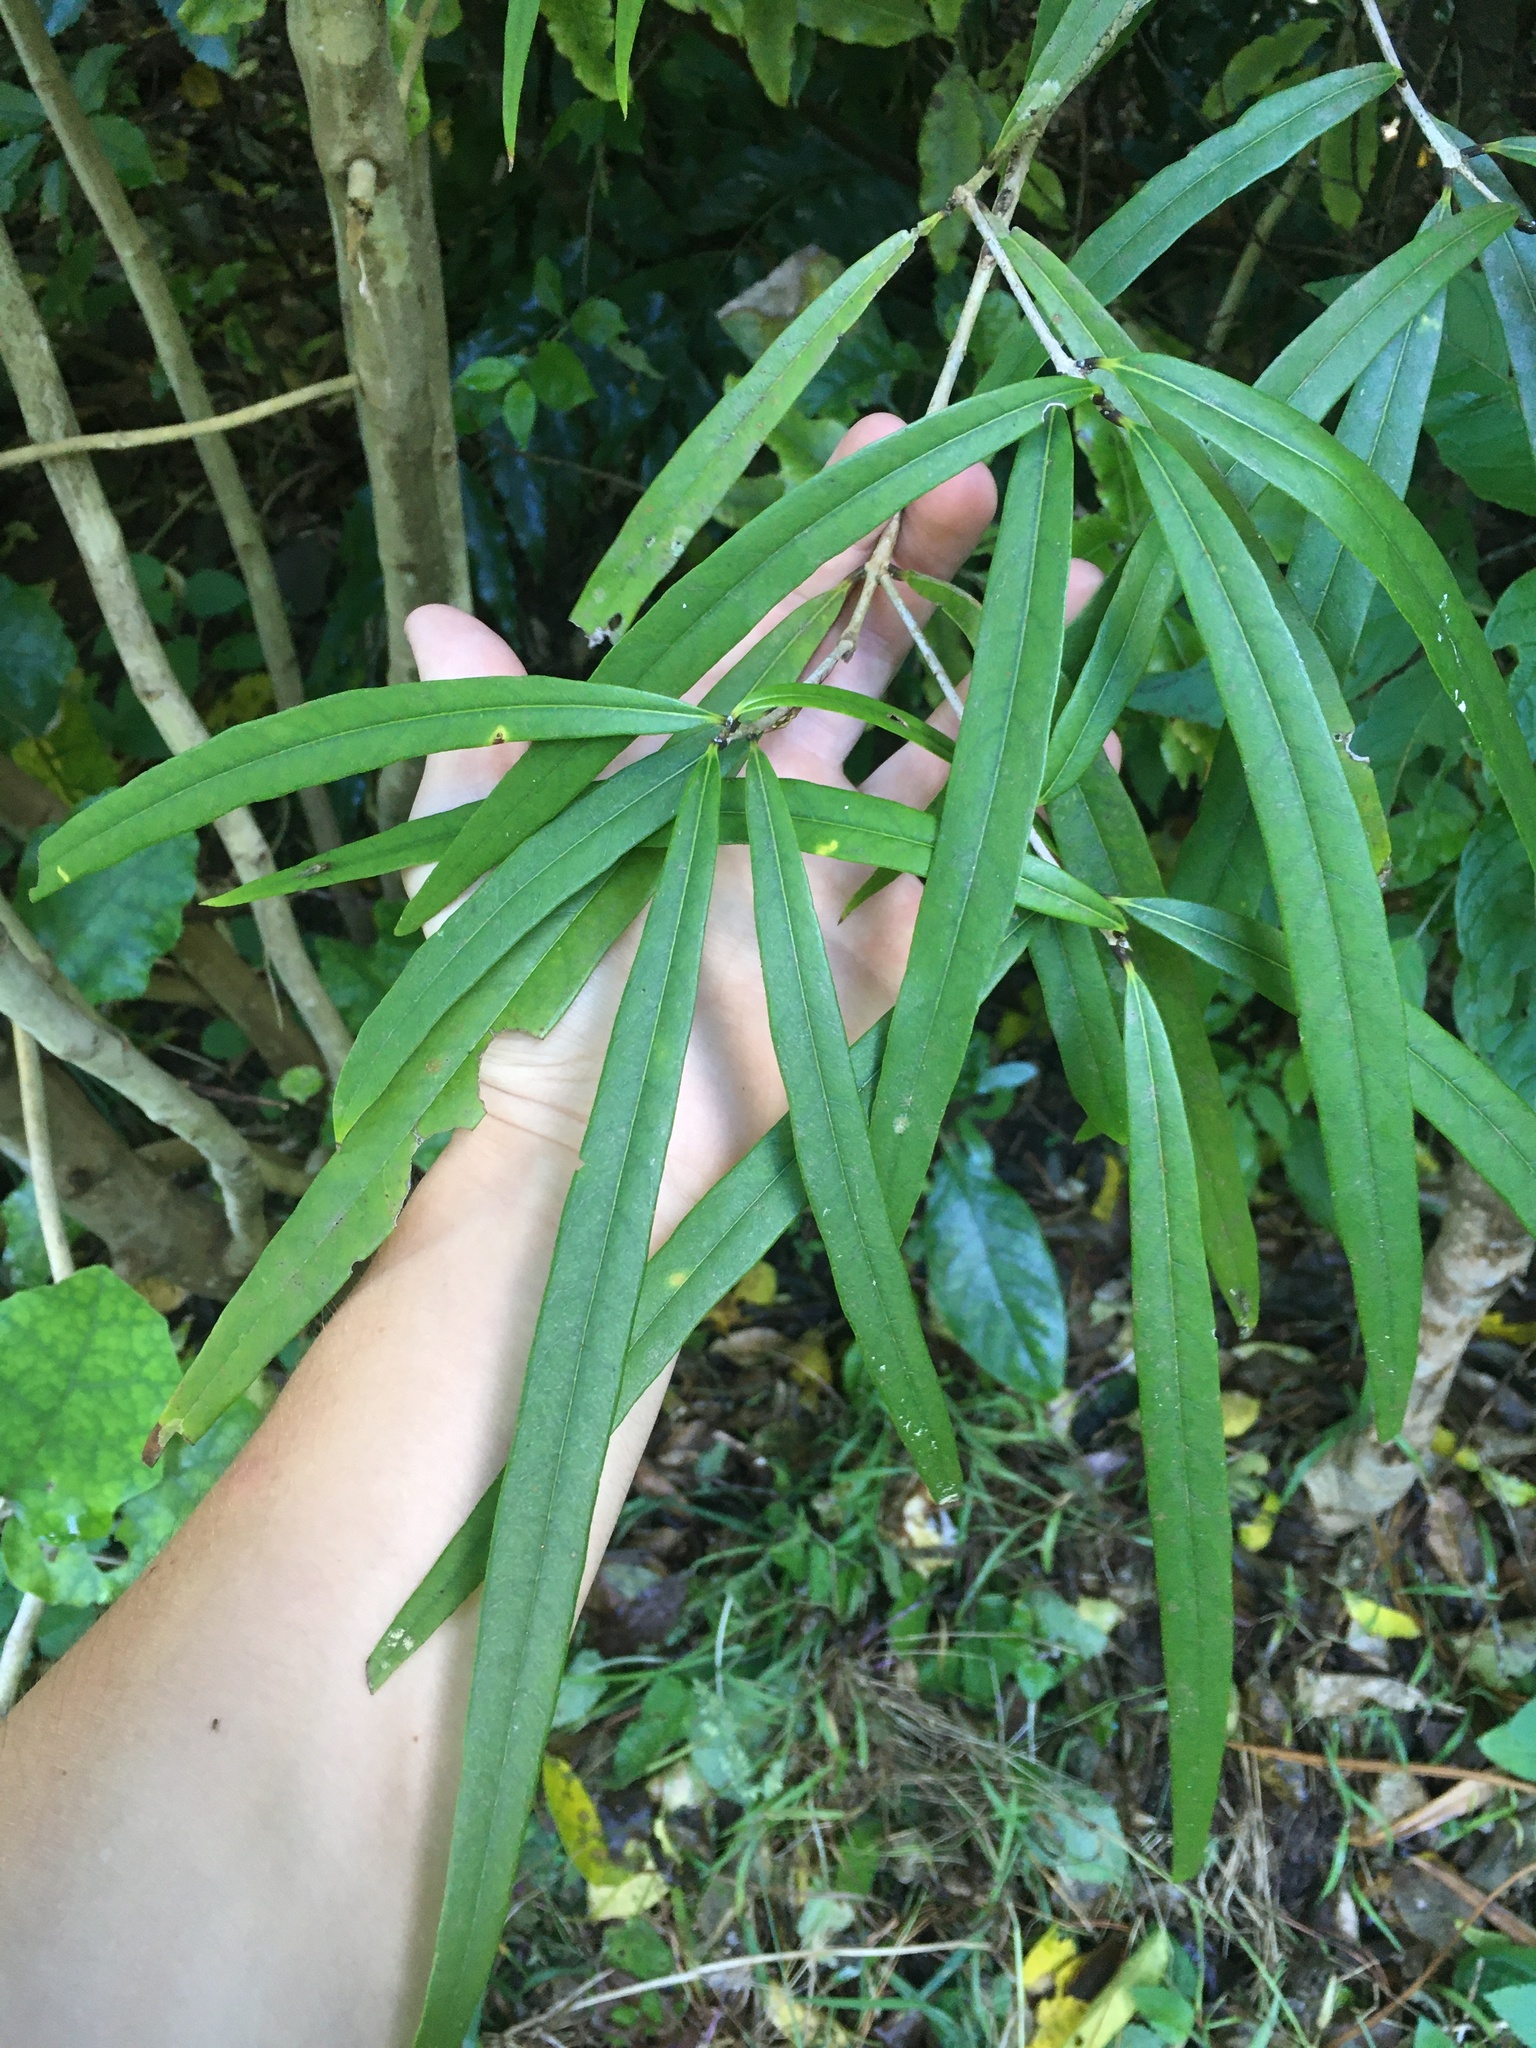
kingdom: Plantae
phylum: Tracheophyta
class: Magnoliopsida
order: Lamiales
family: Oleaceae
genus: Nestegis
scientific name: Nestegis cunninghamii
